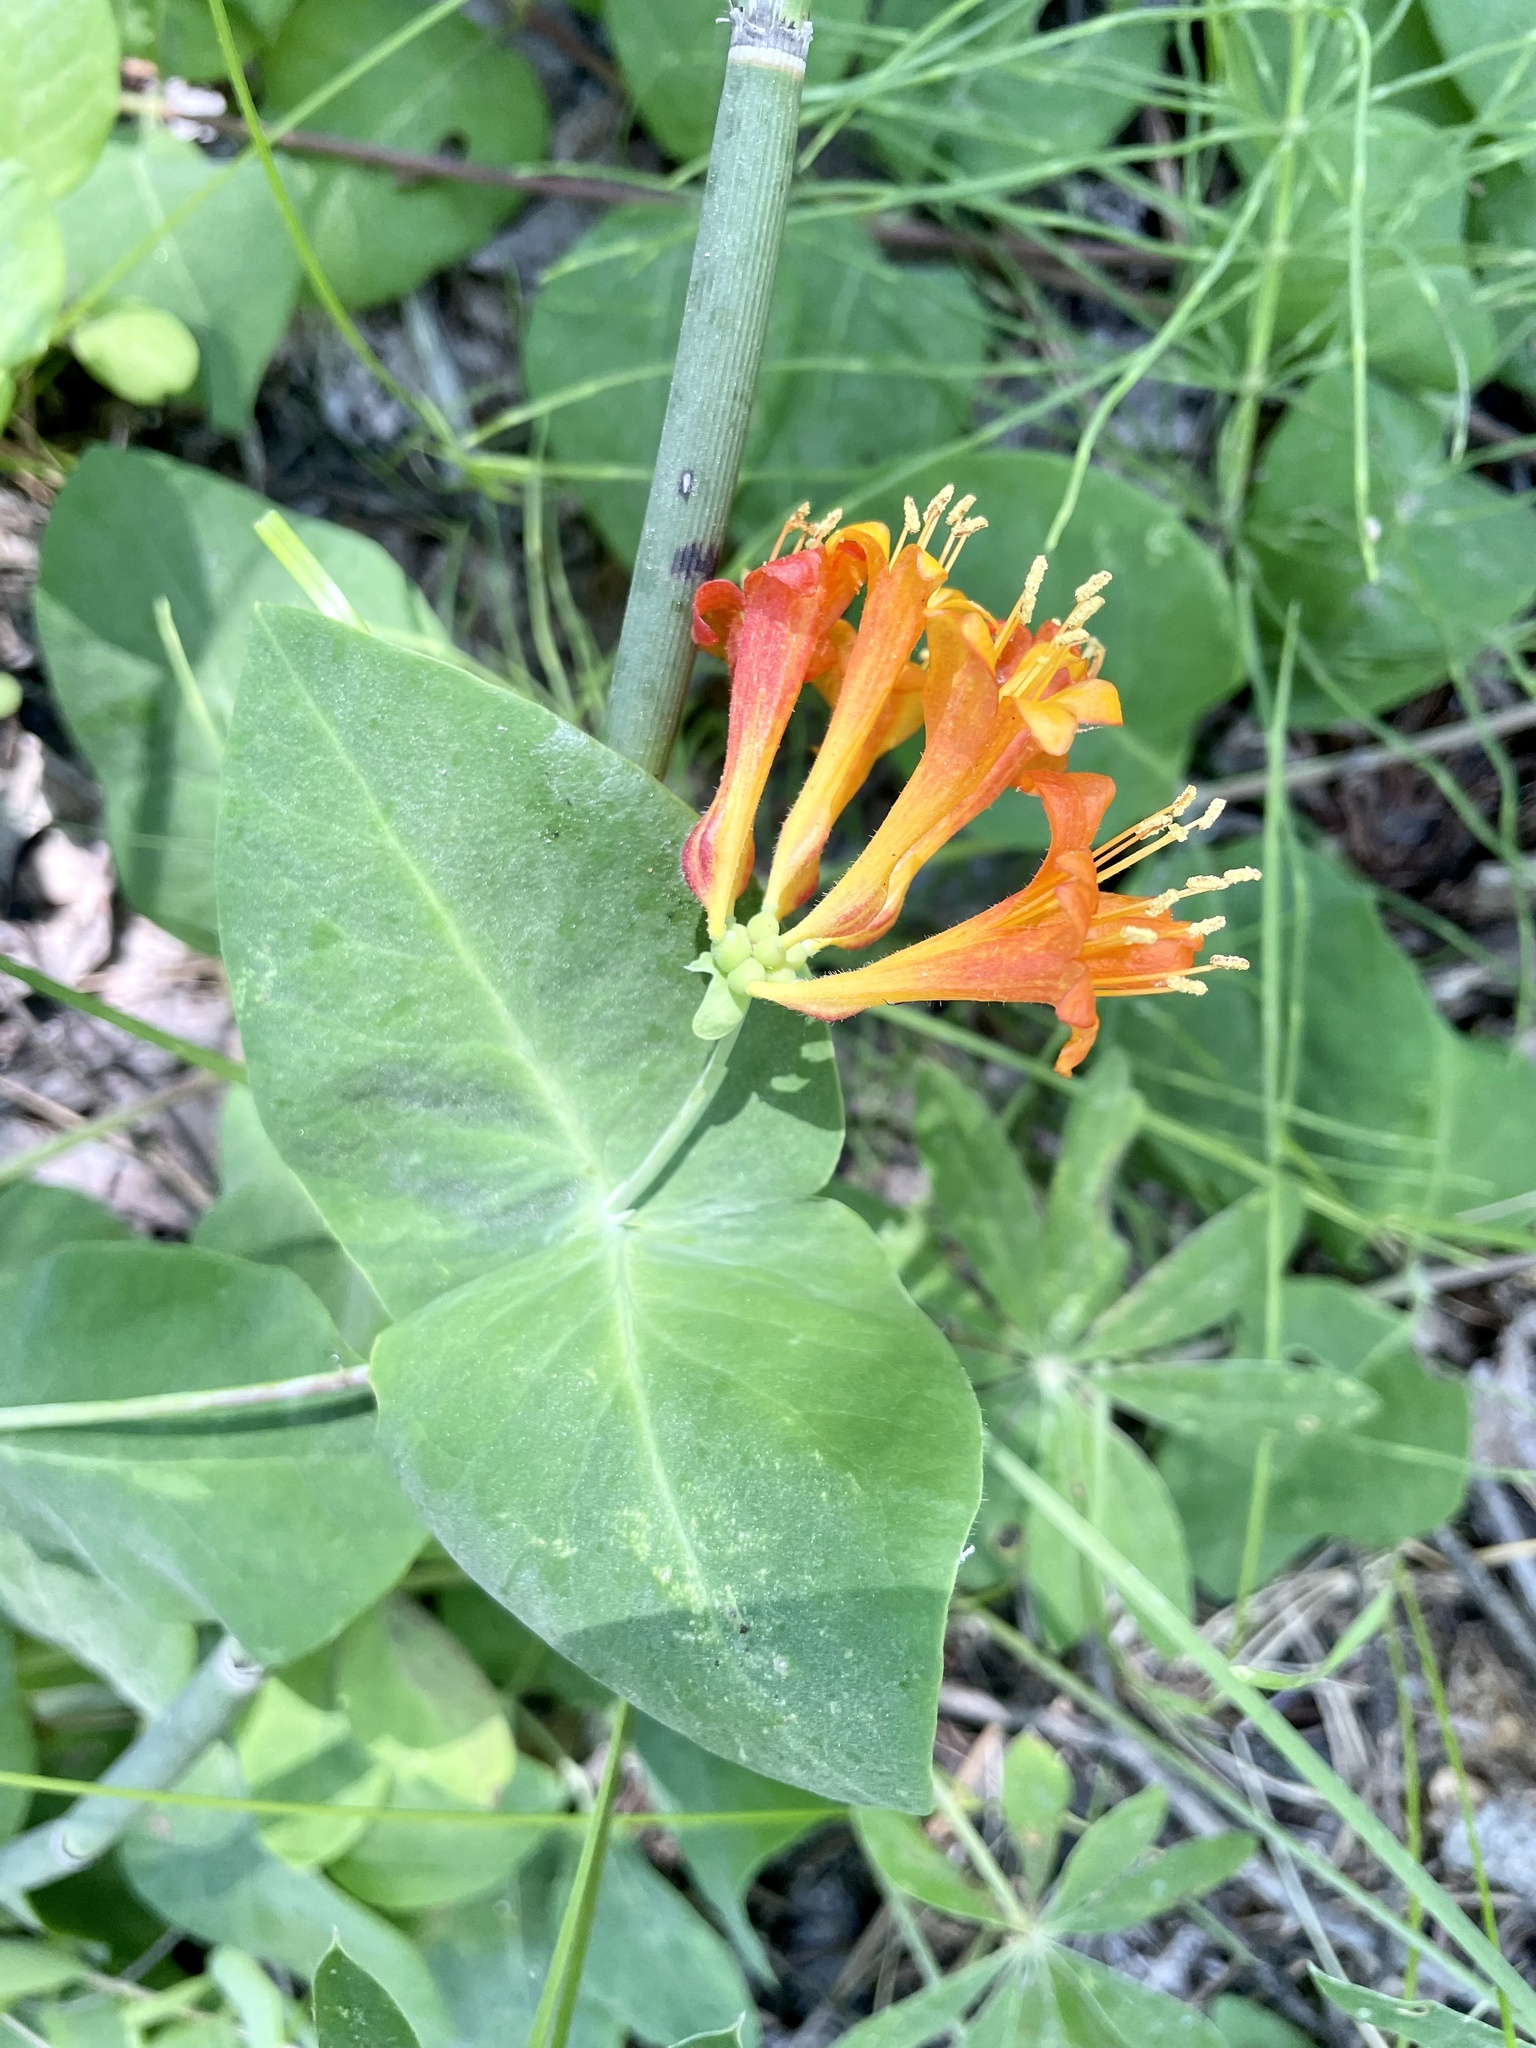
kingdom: Plantae
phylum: Tracheophyta
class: Magnoliopsida
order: Dipsacales
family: Caprifoliaceae
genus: Lonicera
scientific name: Lonicera ciliosa
